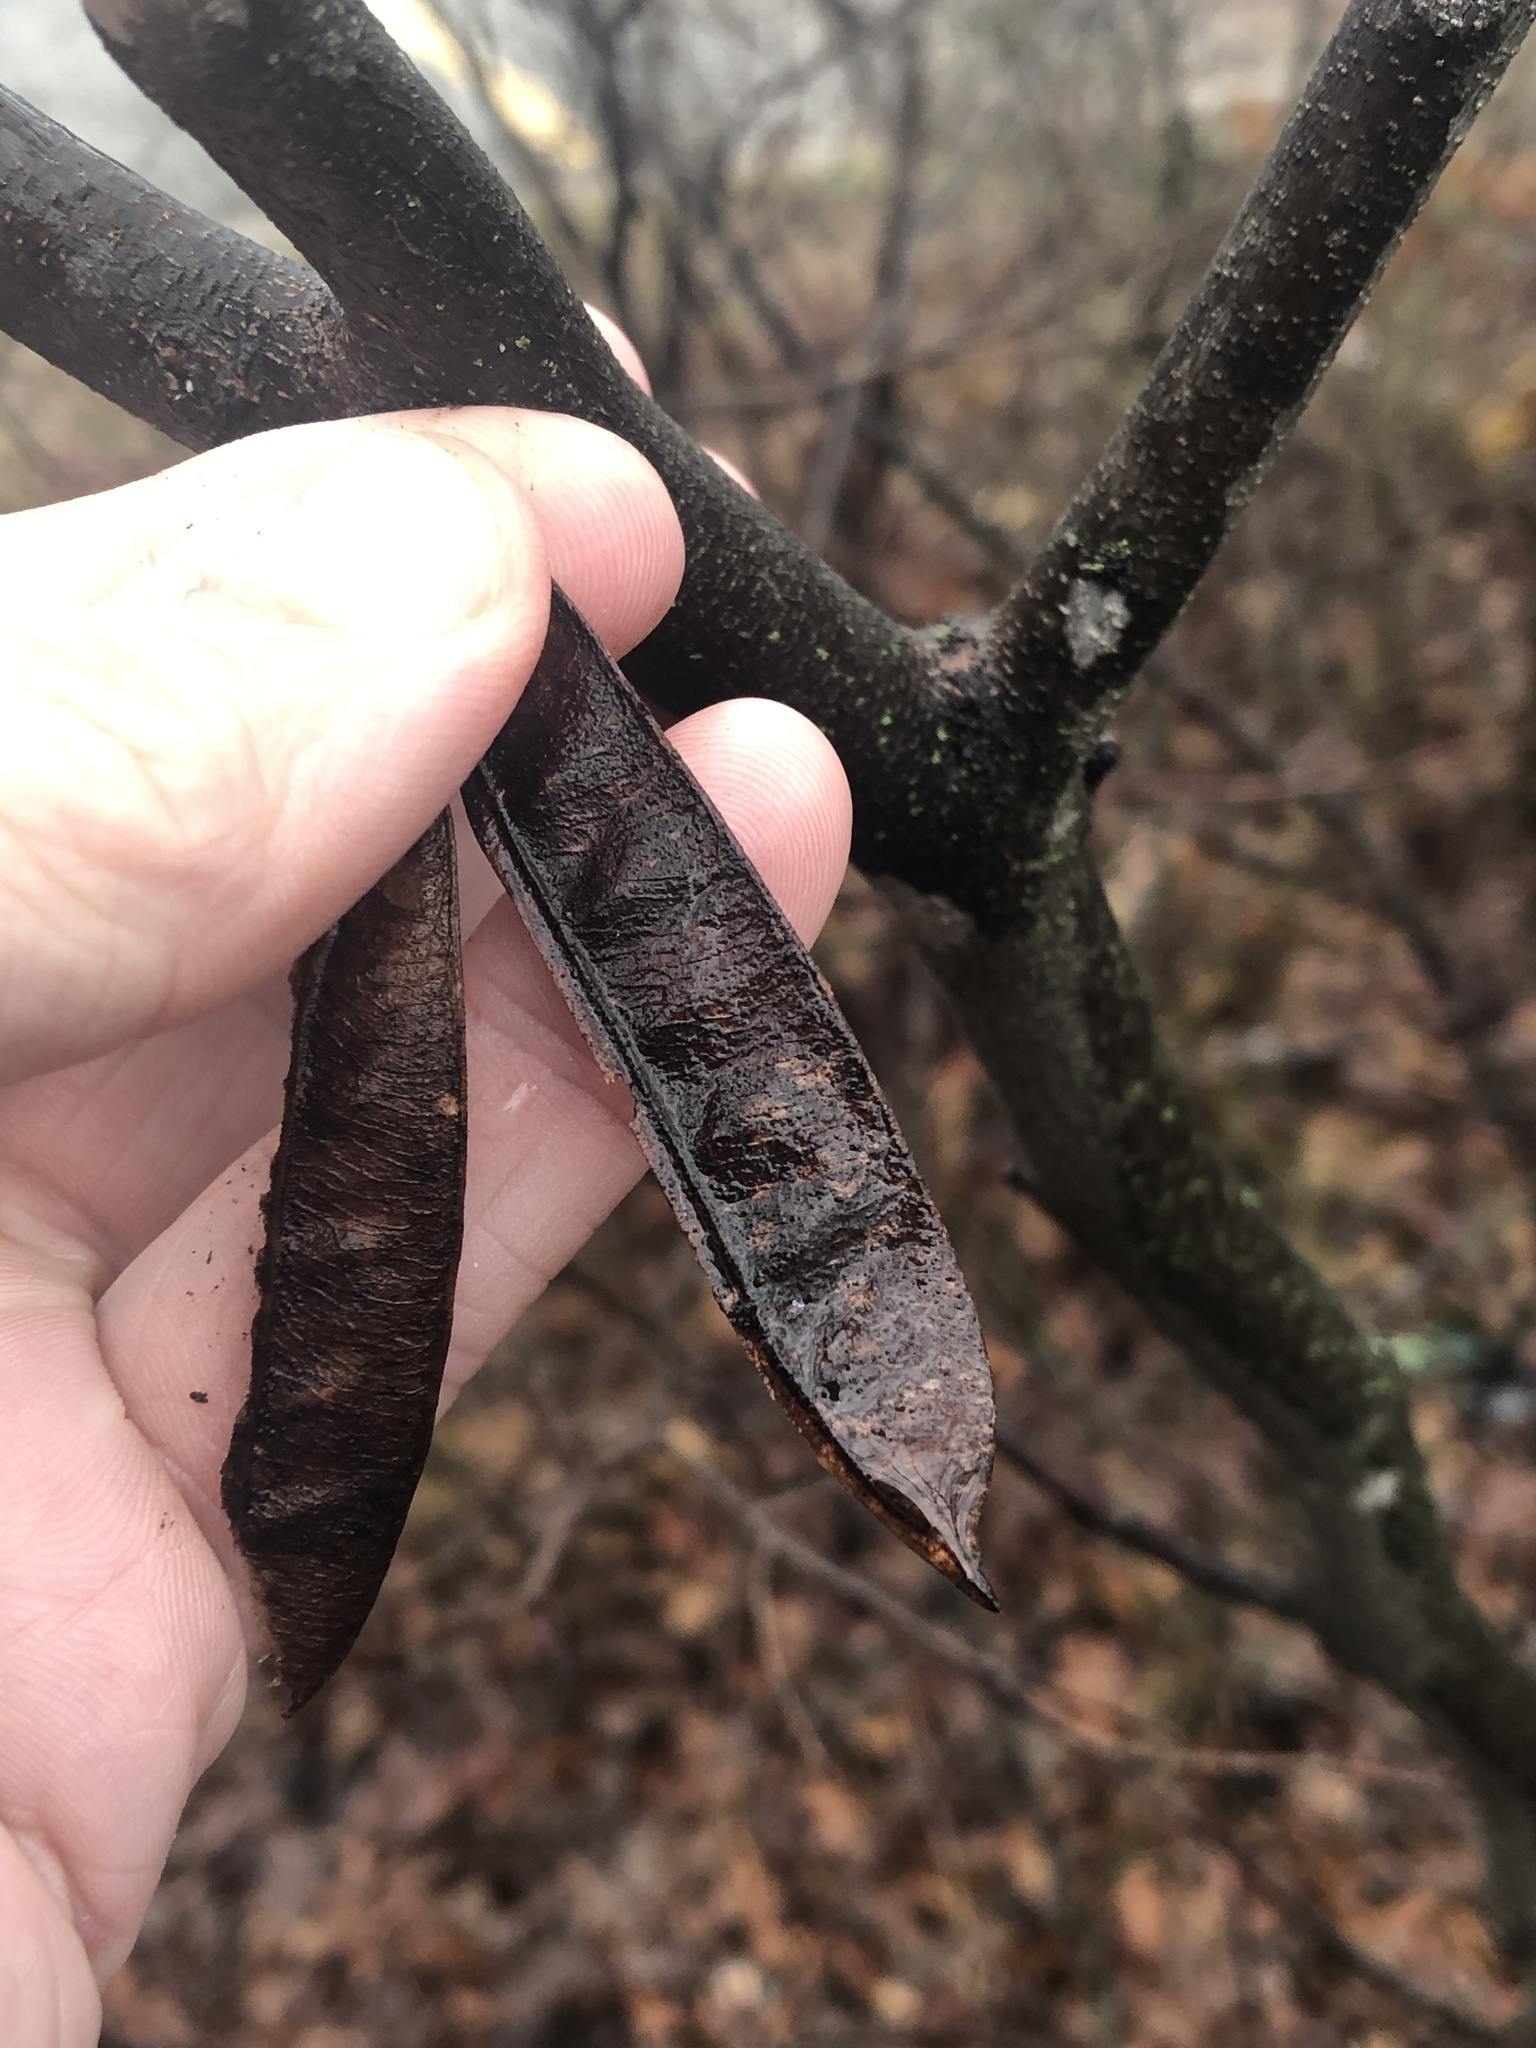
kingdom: Plantae
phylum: Tracheophyta
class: Magnoliopsida
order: Fabales
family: Fabaceae
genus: Cercis
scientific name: Cercis canadensis
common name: Eastern redbud
